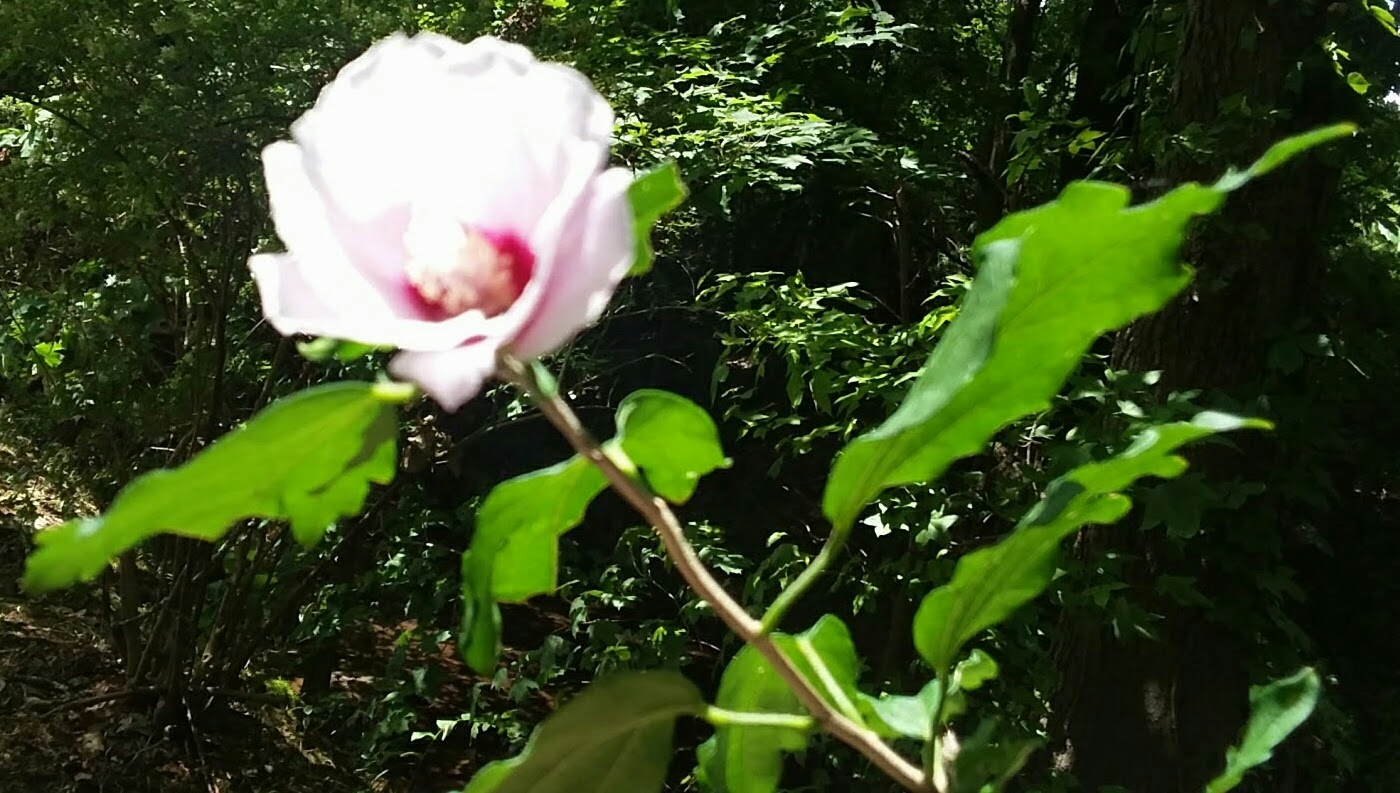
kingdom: Plantae
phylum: Tracheophyta
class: Magnoliopsida
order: Malvales
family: Malvaceae
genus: Hibiscus
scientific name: Hibiscus syriacus
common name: Syrian ketmia
